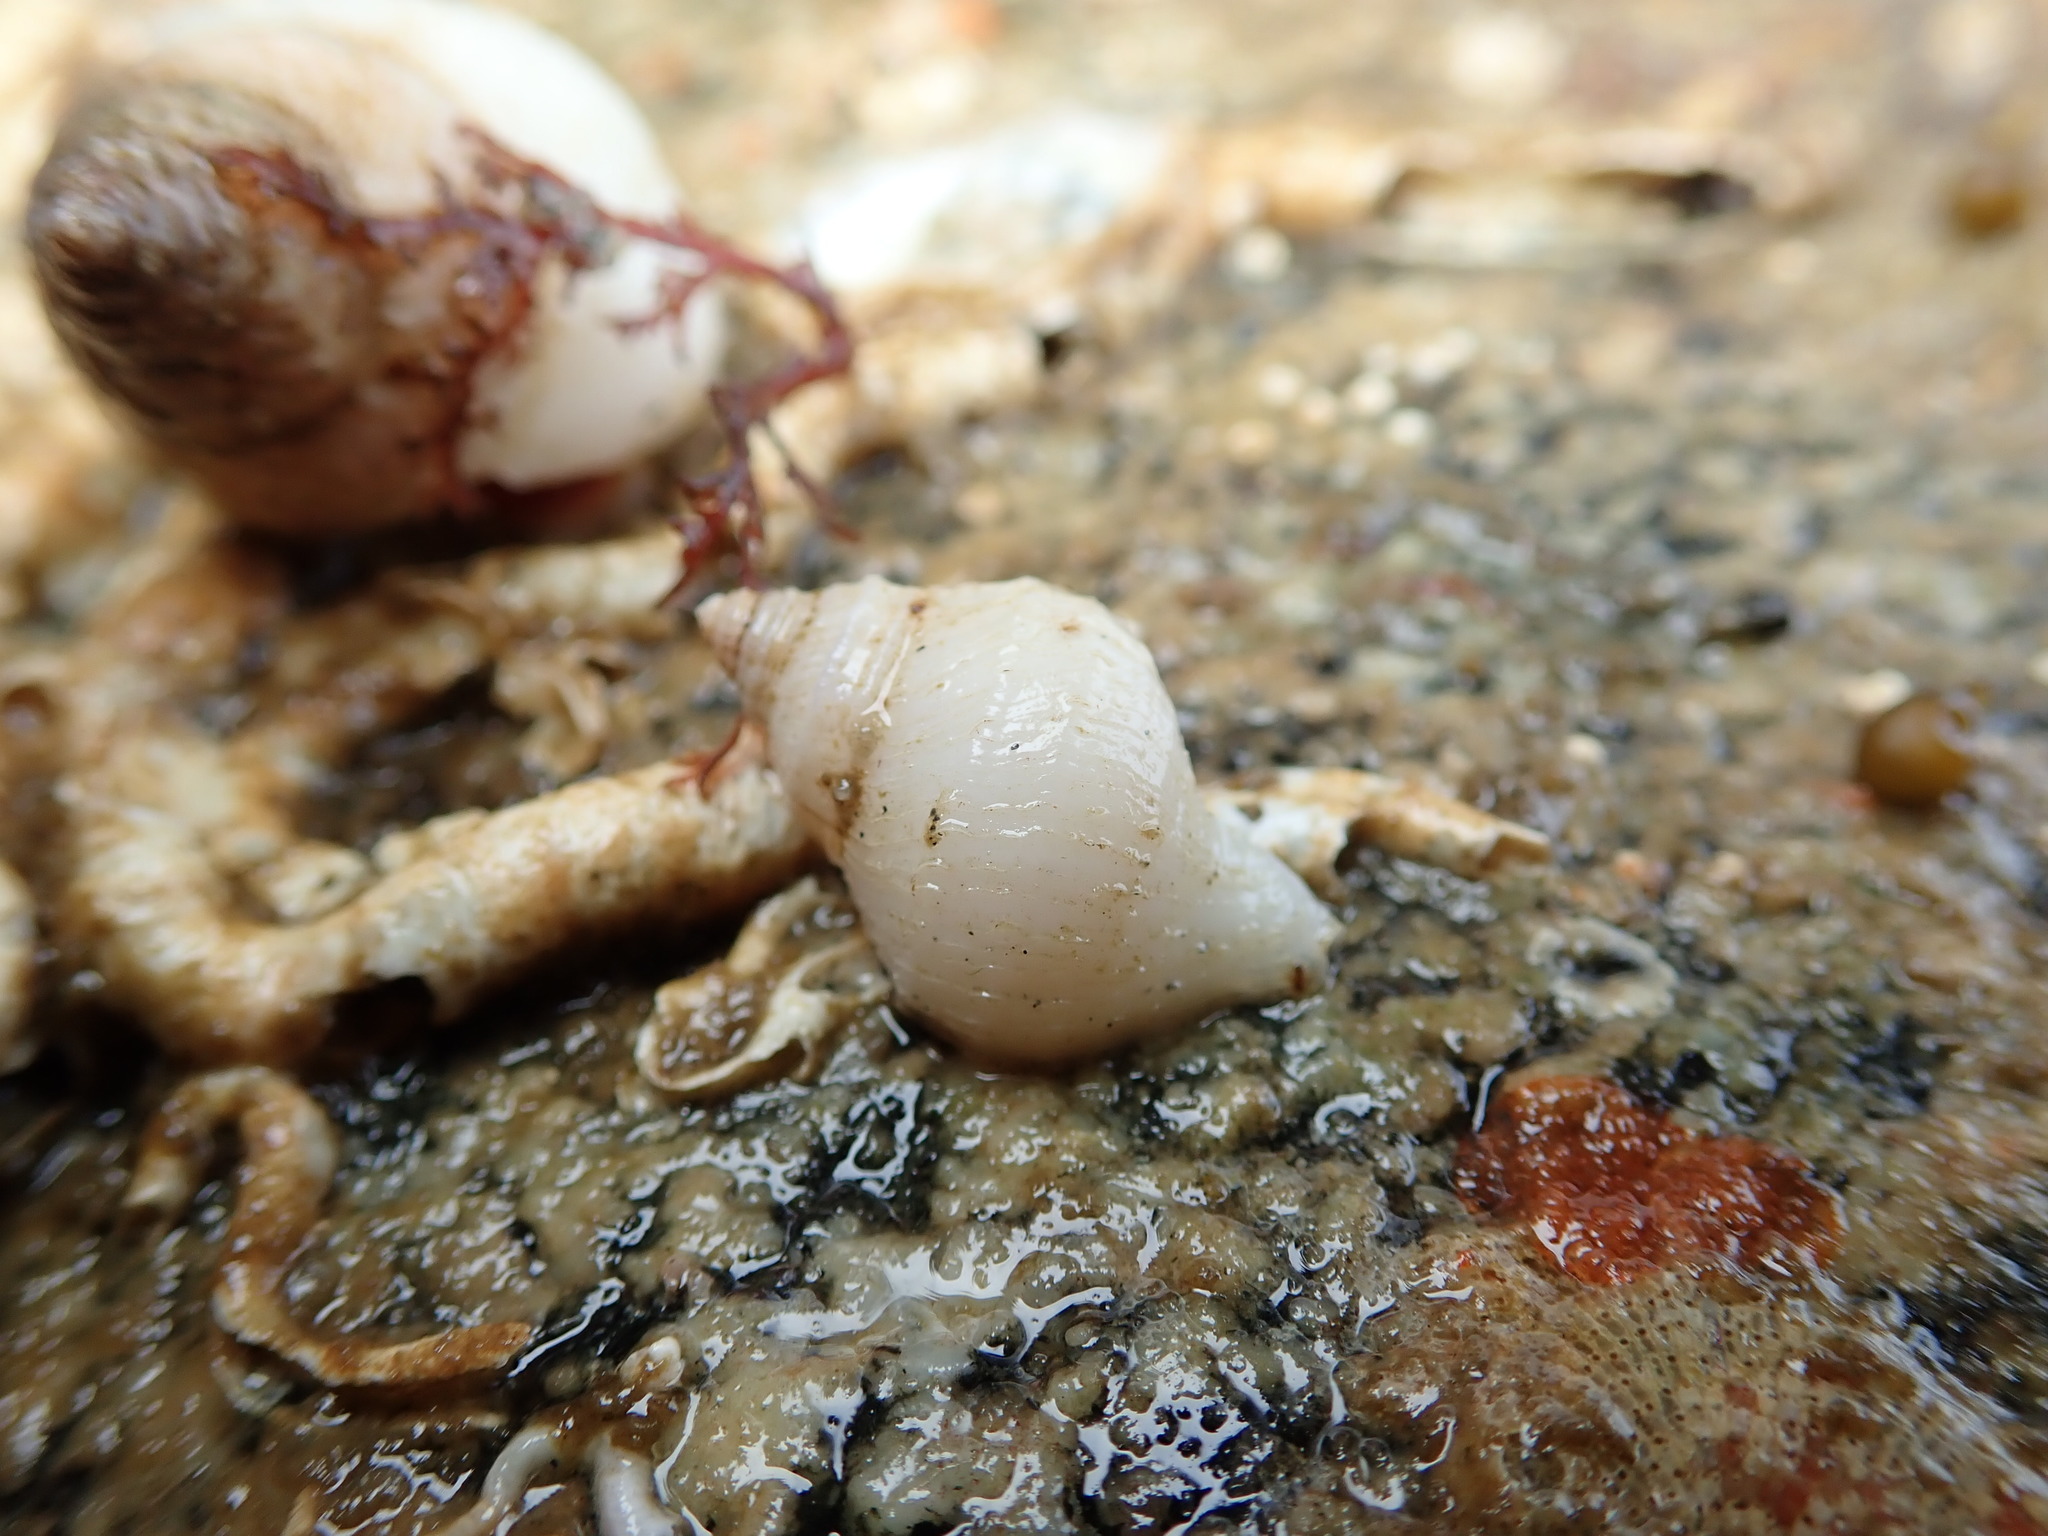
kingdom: Animalia
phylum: Mollusca
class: Gastropoda
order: Neogastropoda
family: Muricidae
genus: Nucella
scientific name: Nucella lamellosa
